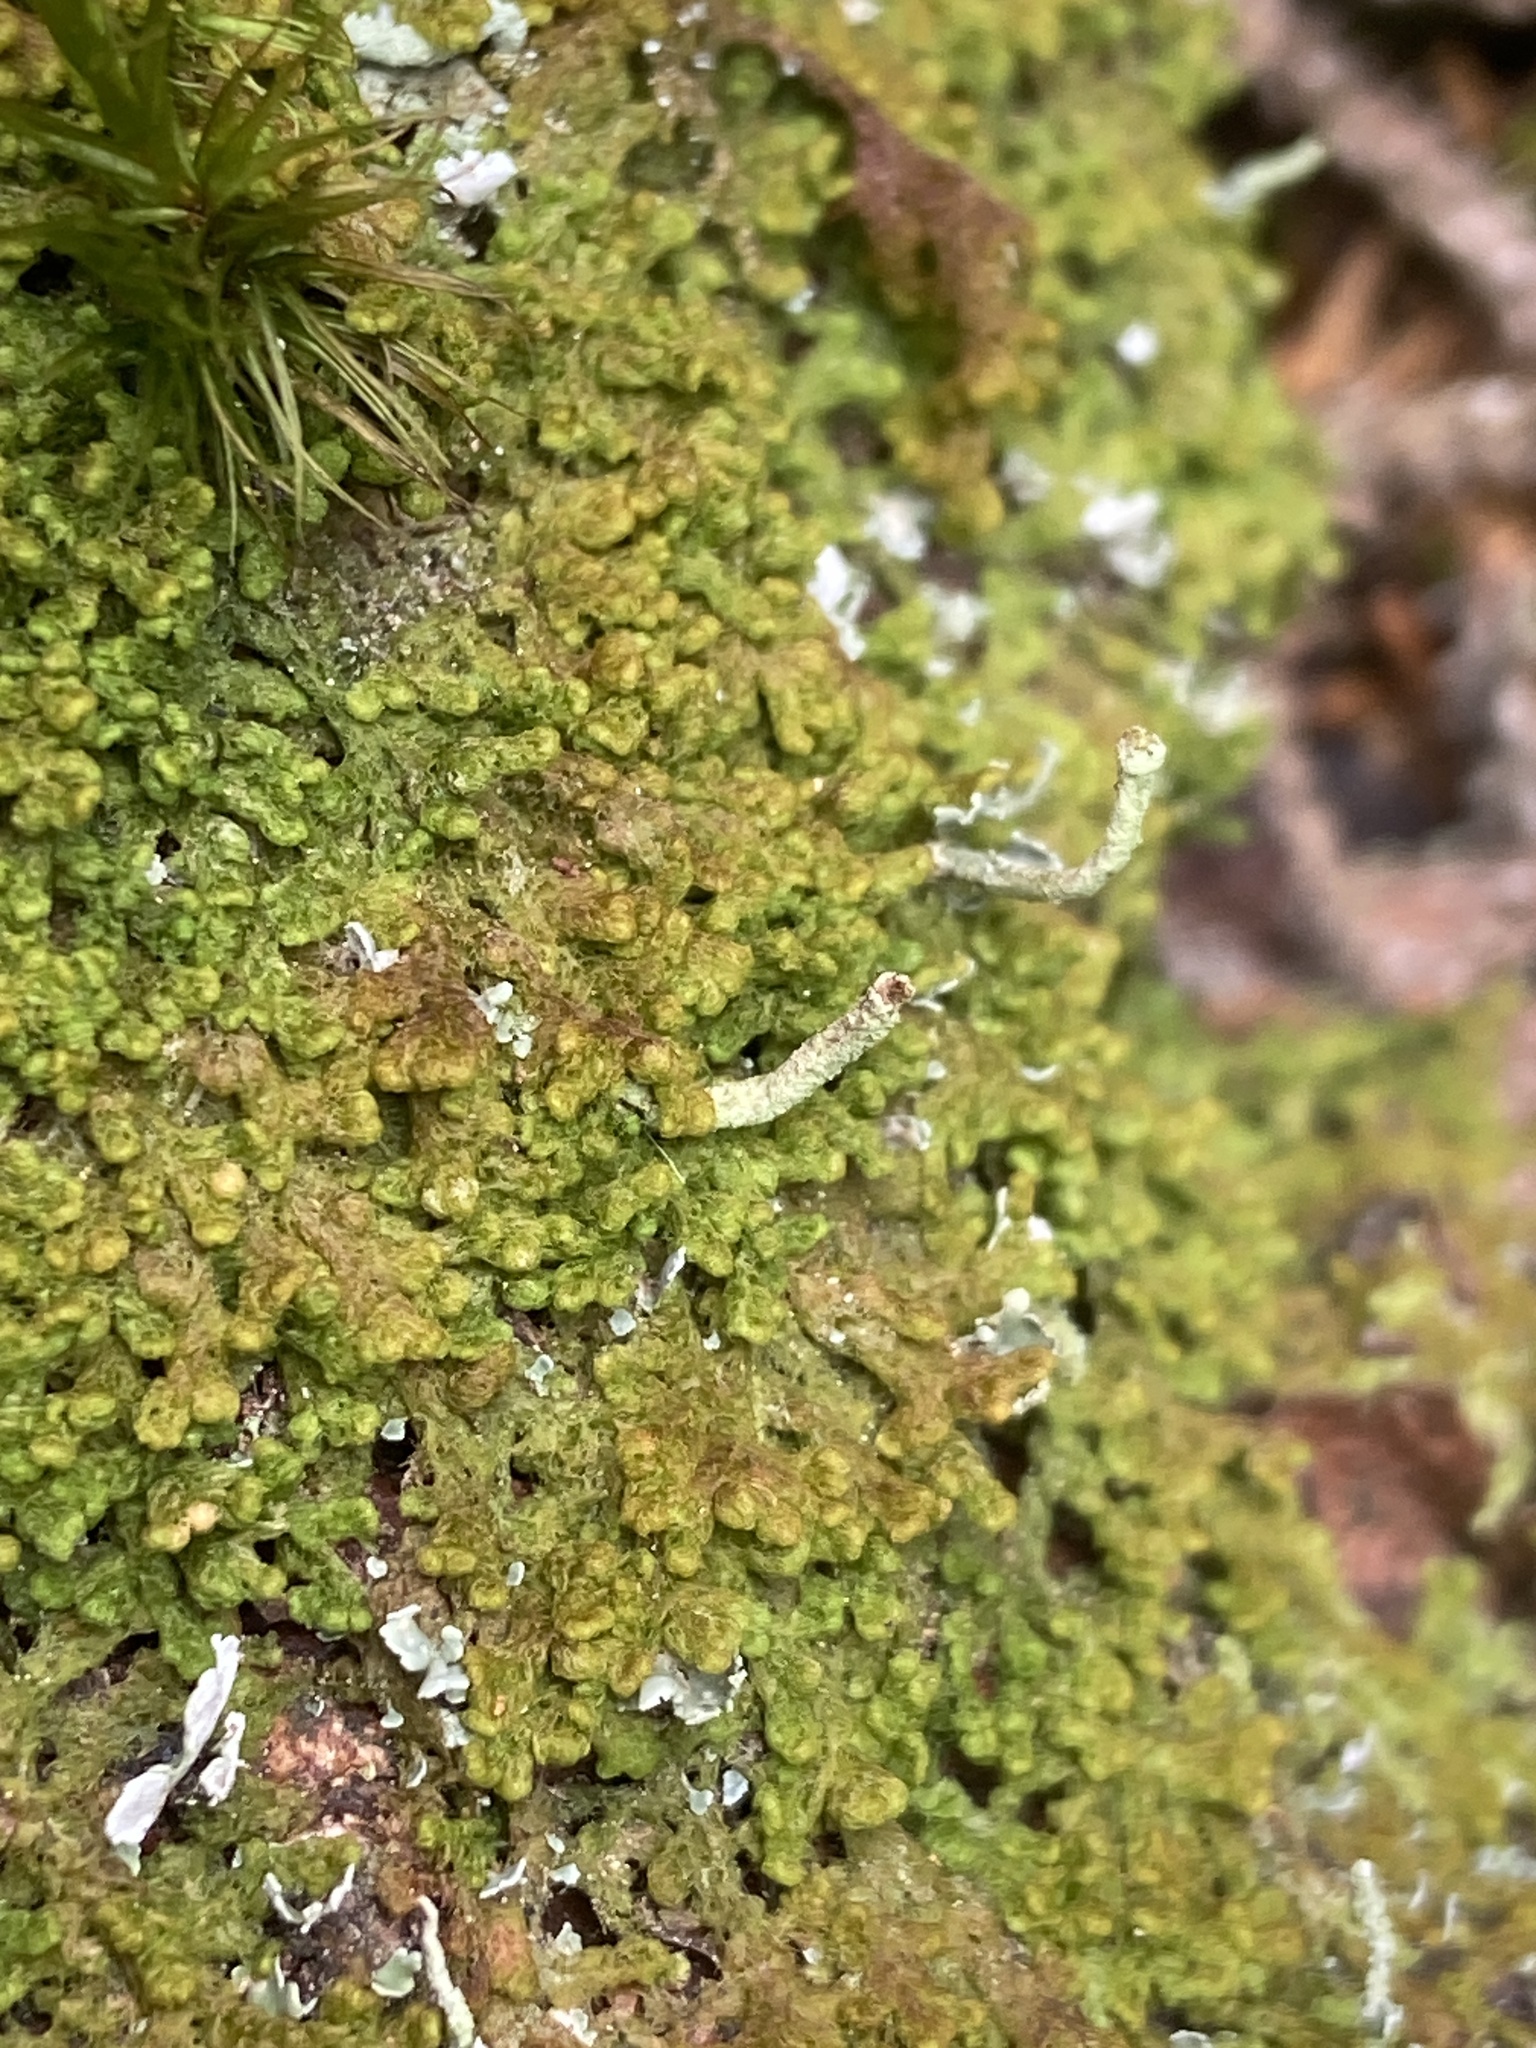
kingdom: Plantae
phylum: Marchantiophyta
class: Jungermanniopsida
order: Ptilidiales
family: Ptilidiaceae
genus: Ptilidium
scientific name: Ptilidium ciliare
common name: Ciliate fringewort
